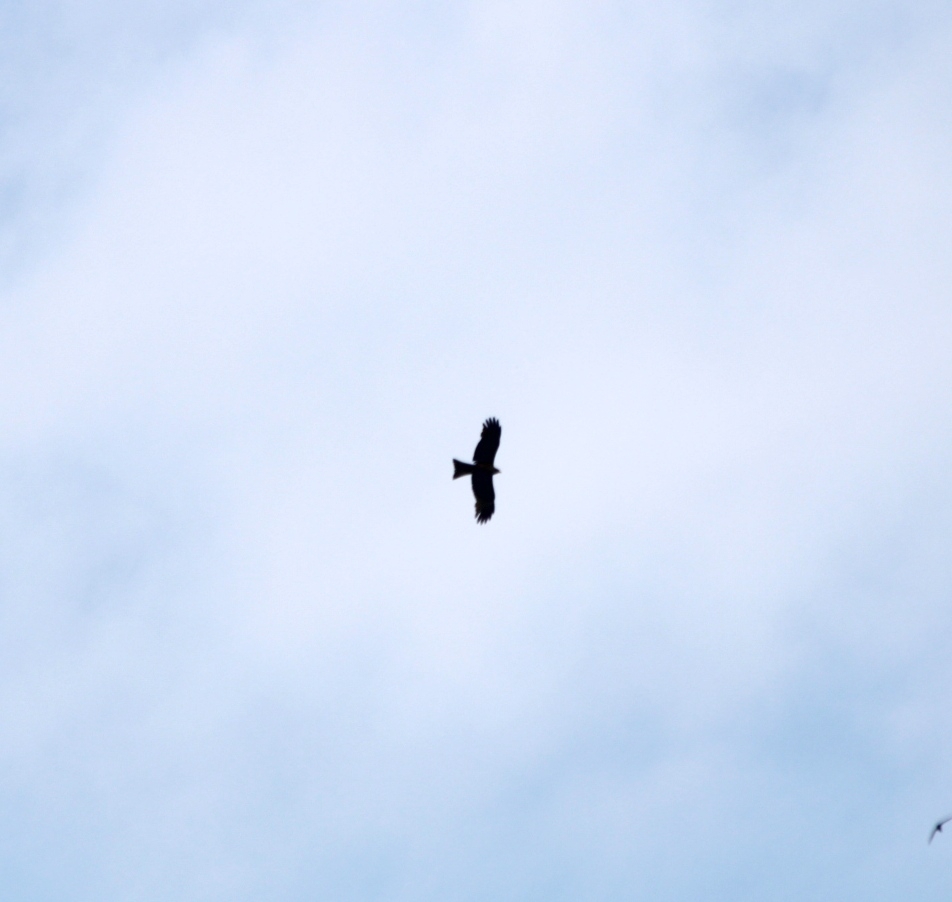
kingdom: Animalia
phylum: Chordata
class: Aves
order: Accipitriformes
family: Accipitridae
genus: Milvus
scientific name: Milvus migrans
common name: Black kite
